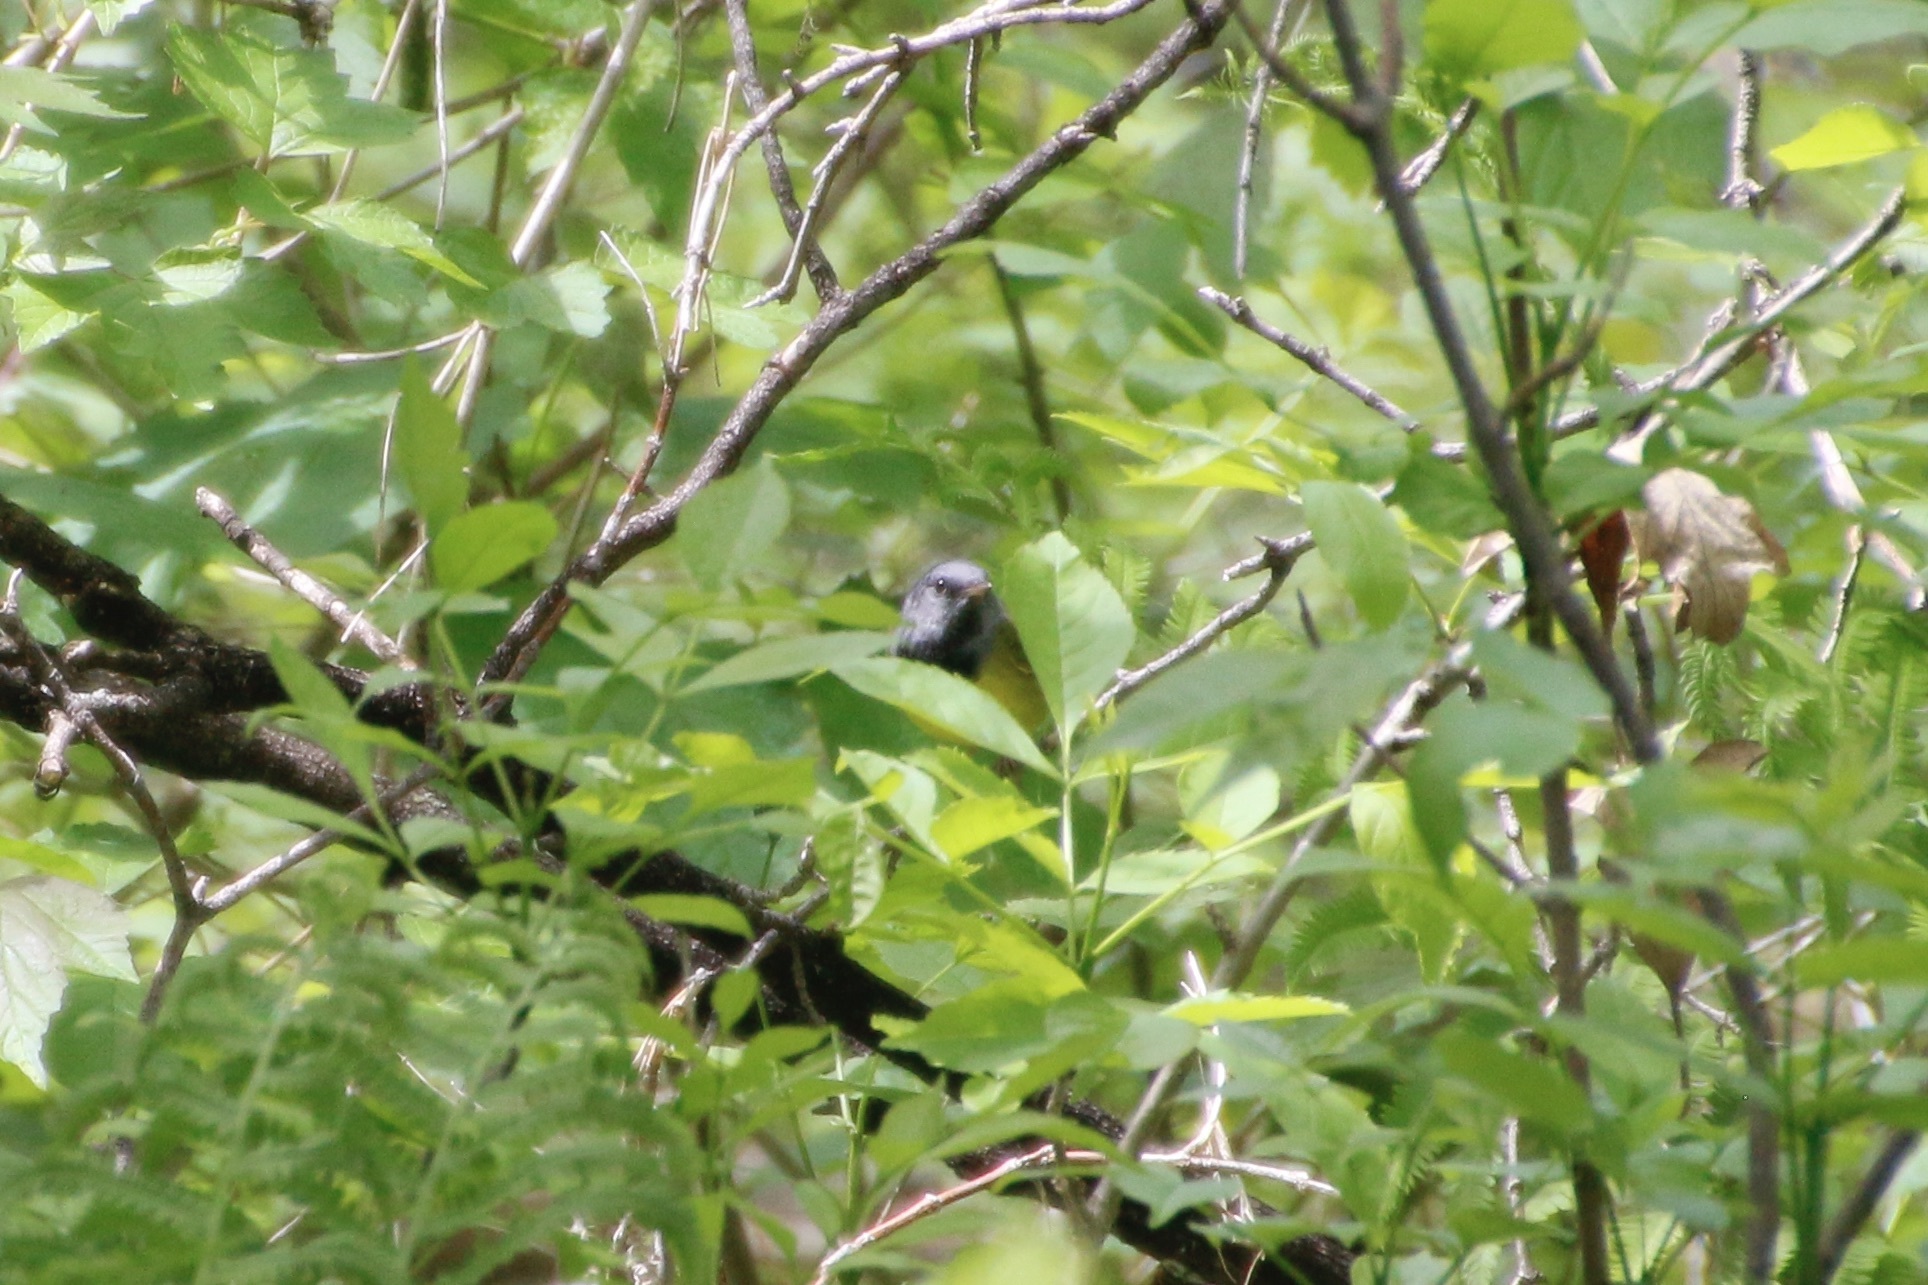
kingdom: Animalia
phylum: Chordata
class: Aves
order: Passeriformes
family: Parulidae
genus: Geothlypis
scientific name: Geothlypis philadelphia
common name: Mourning warbler
